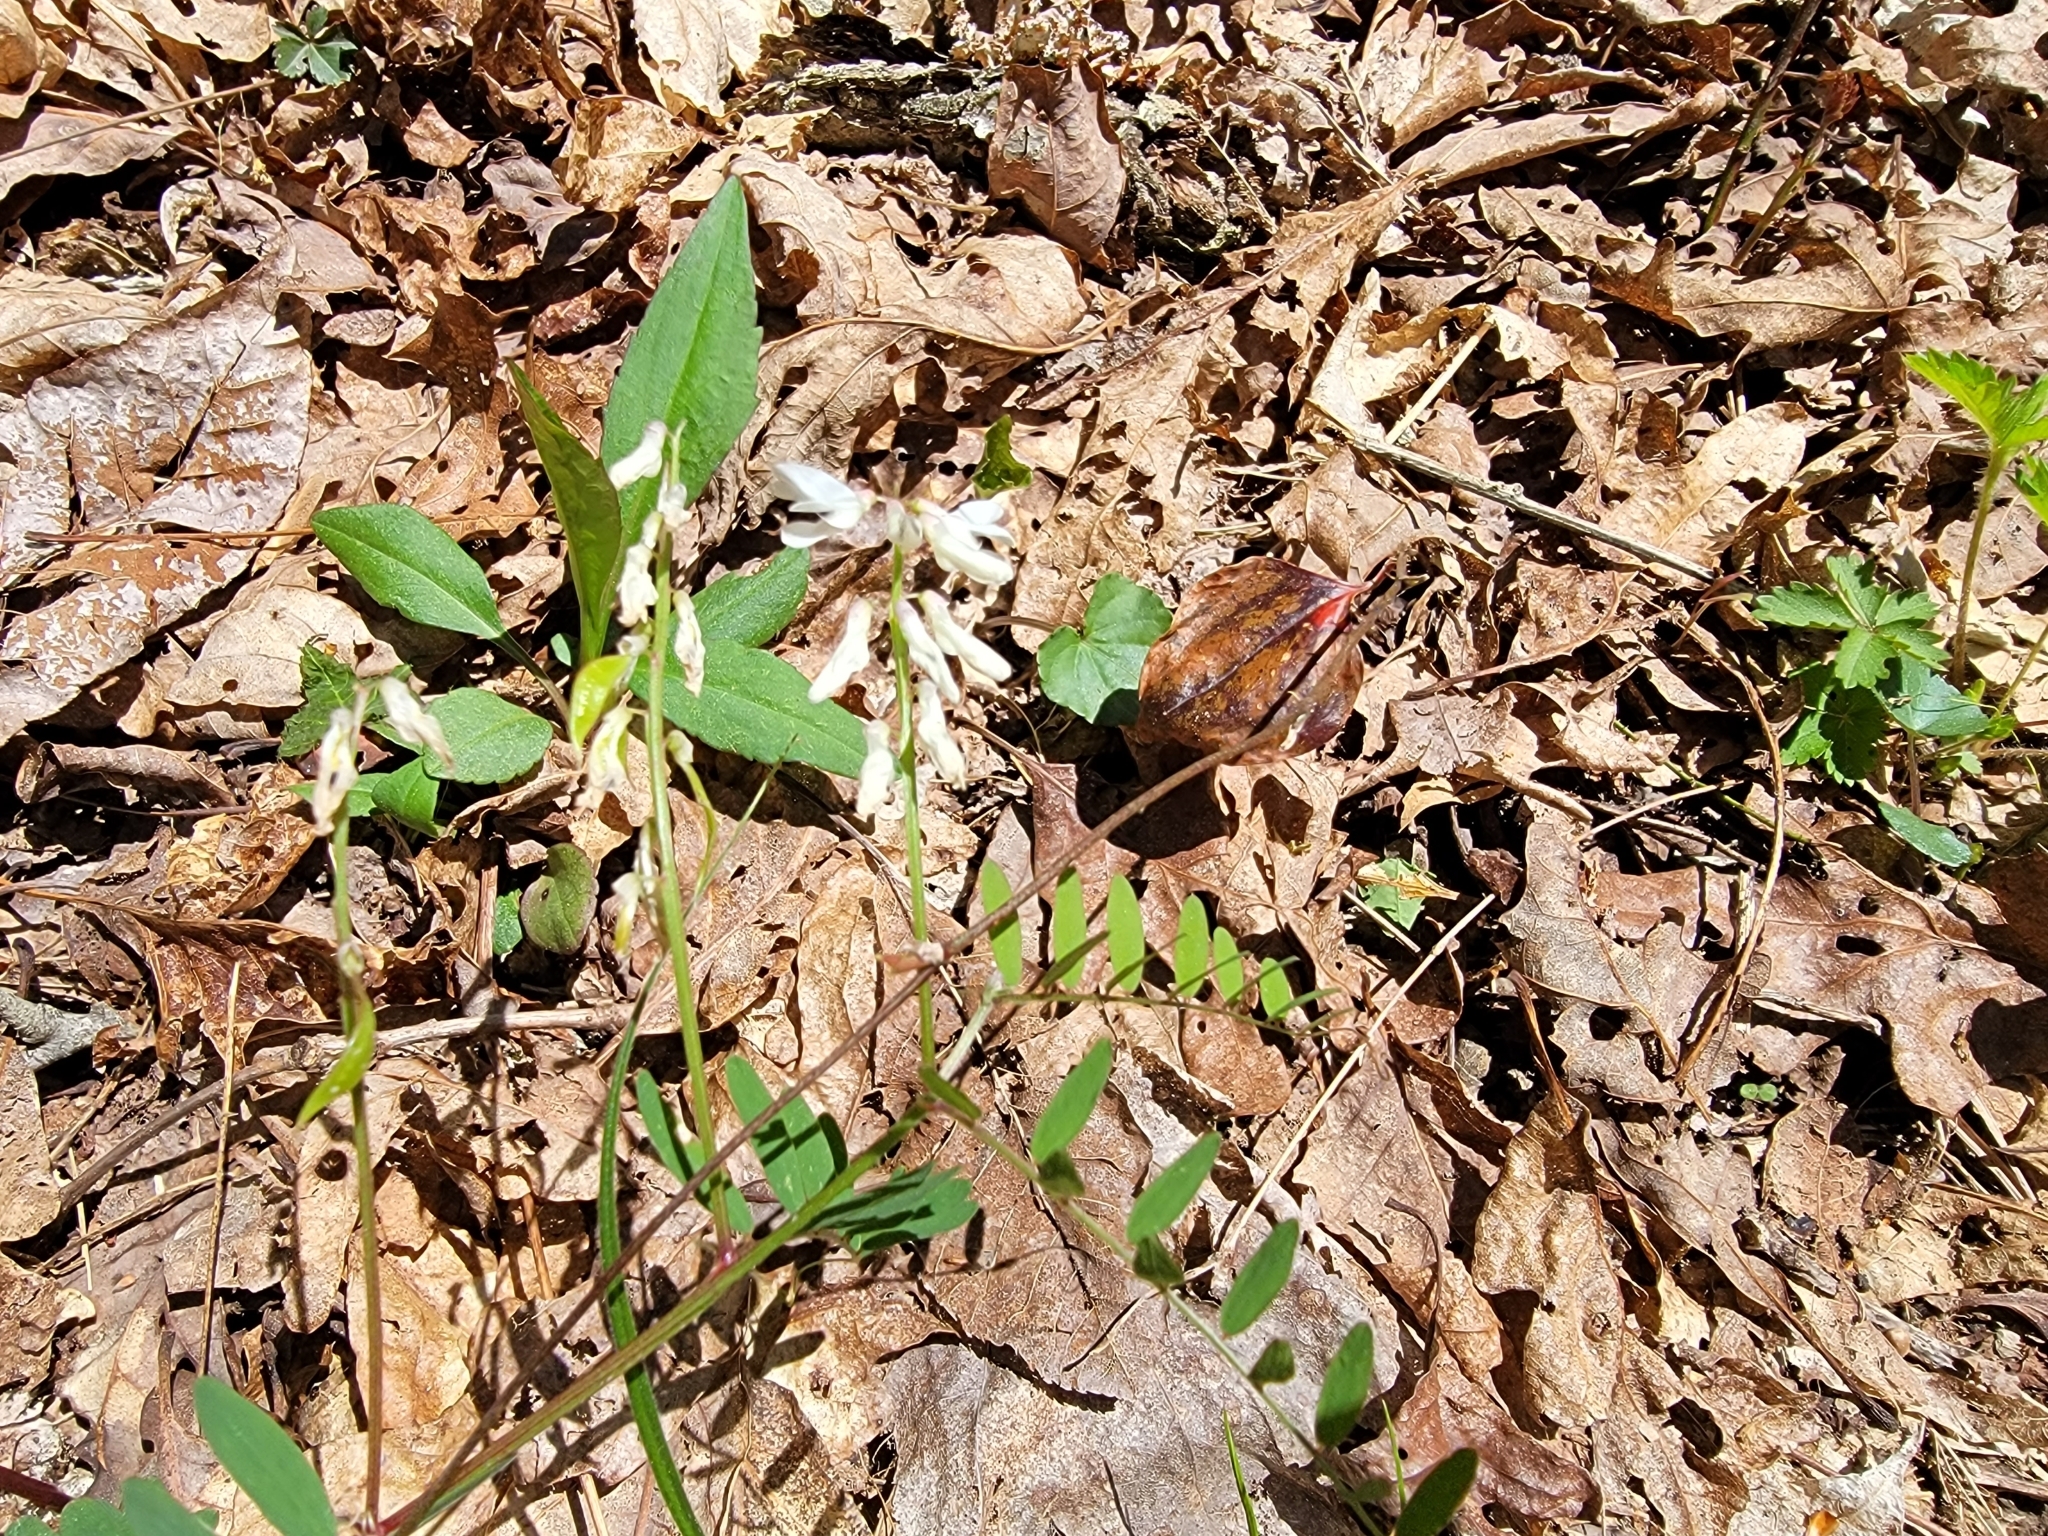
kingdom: Plantae
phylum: Tracheophyta
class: Magnoliopsida
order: Fabales
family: Fabaceae
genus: Vicia
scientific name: Vicia caroliniana
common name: Carolina vetch
